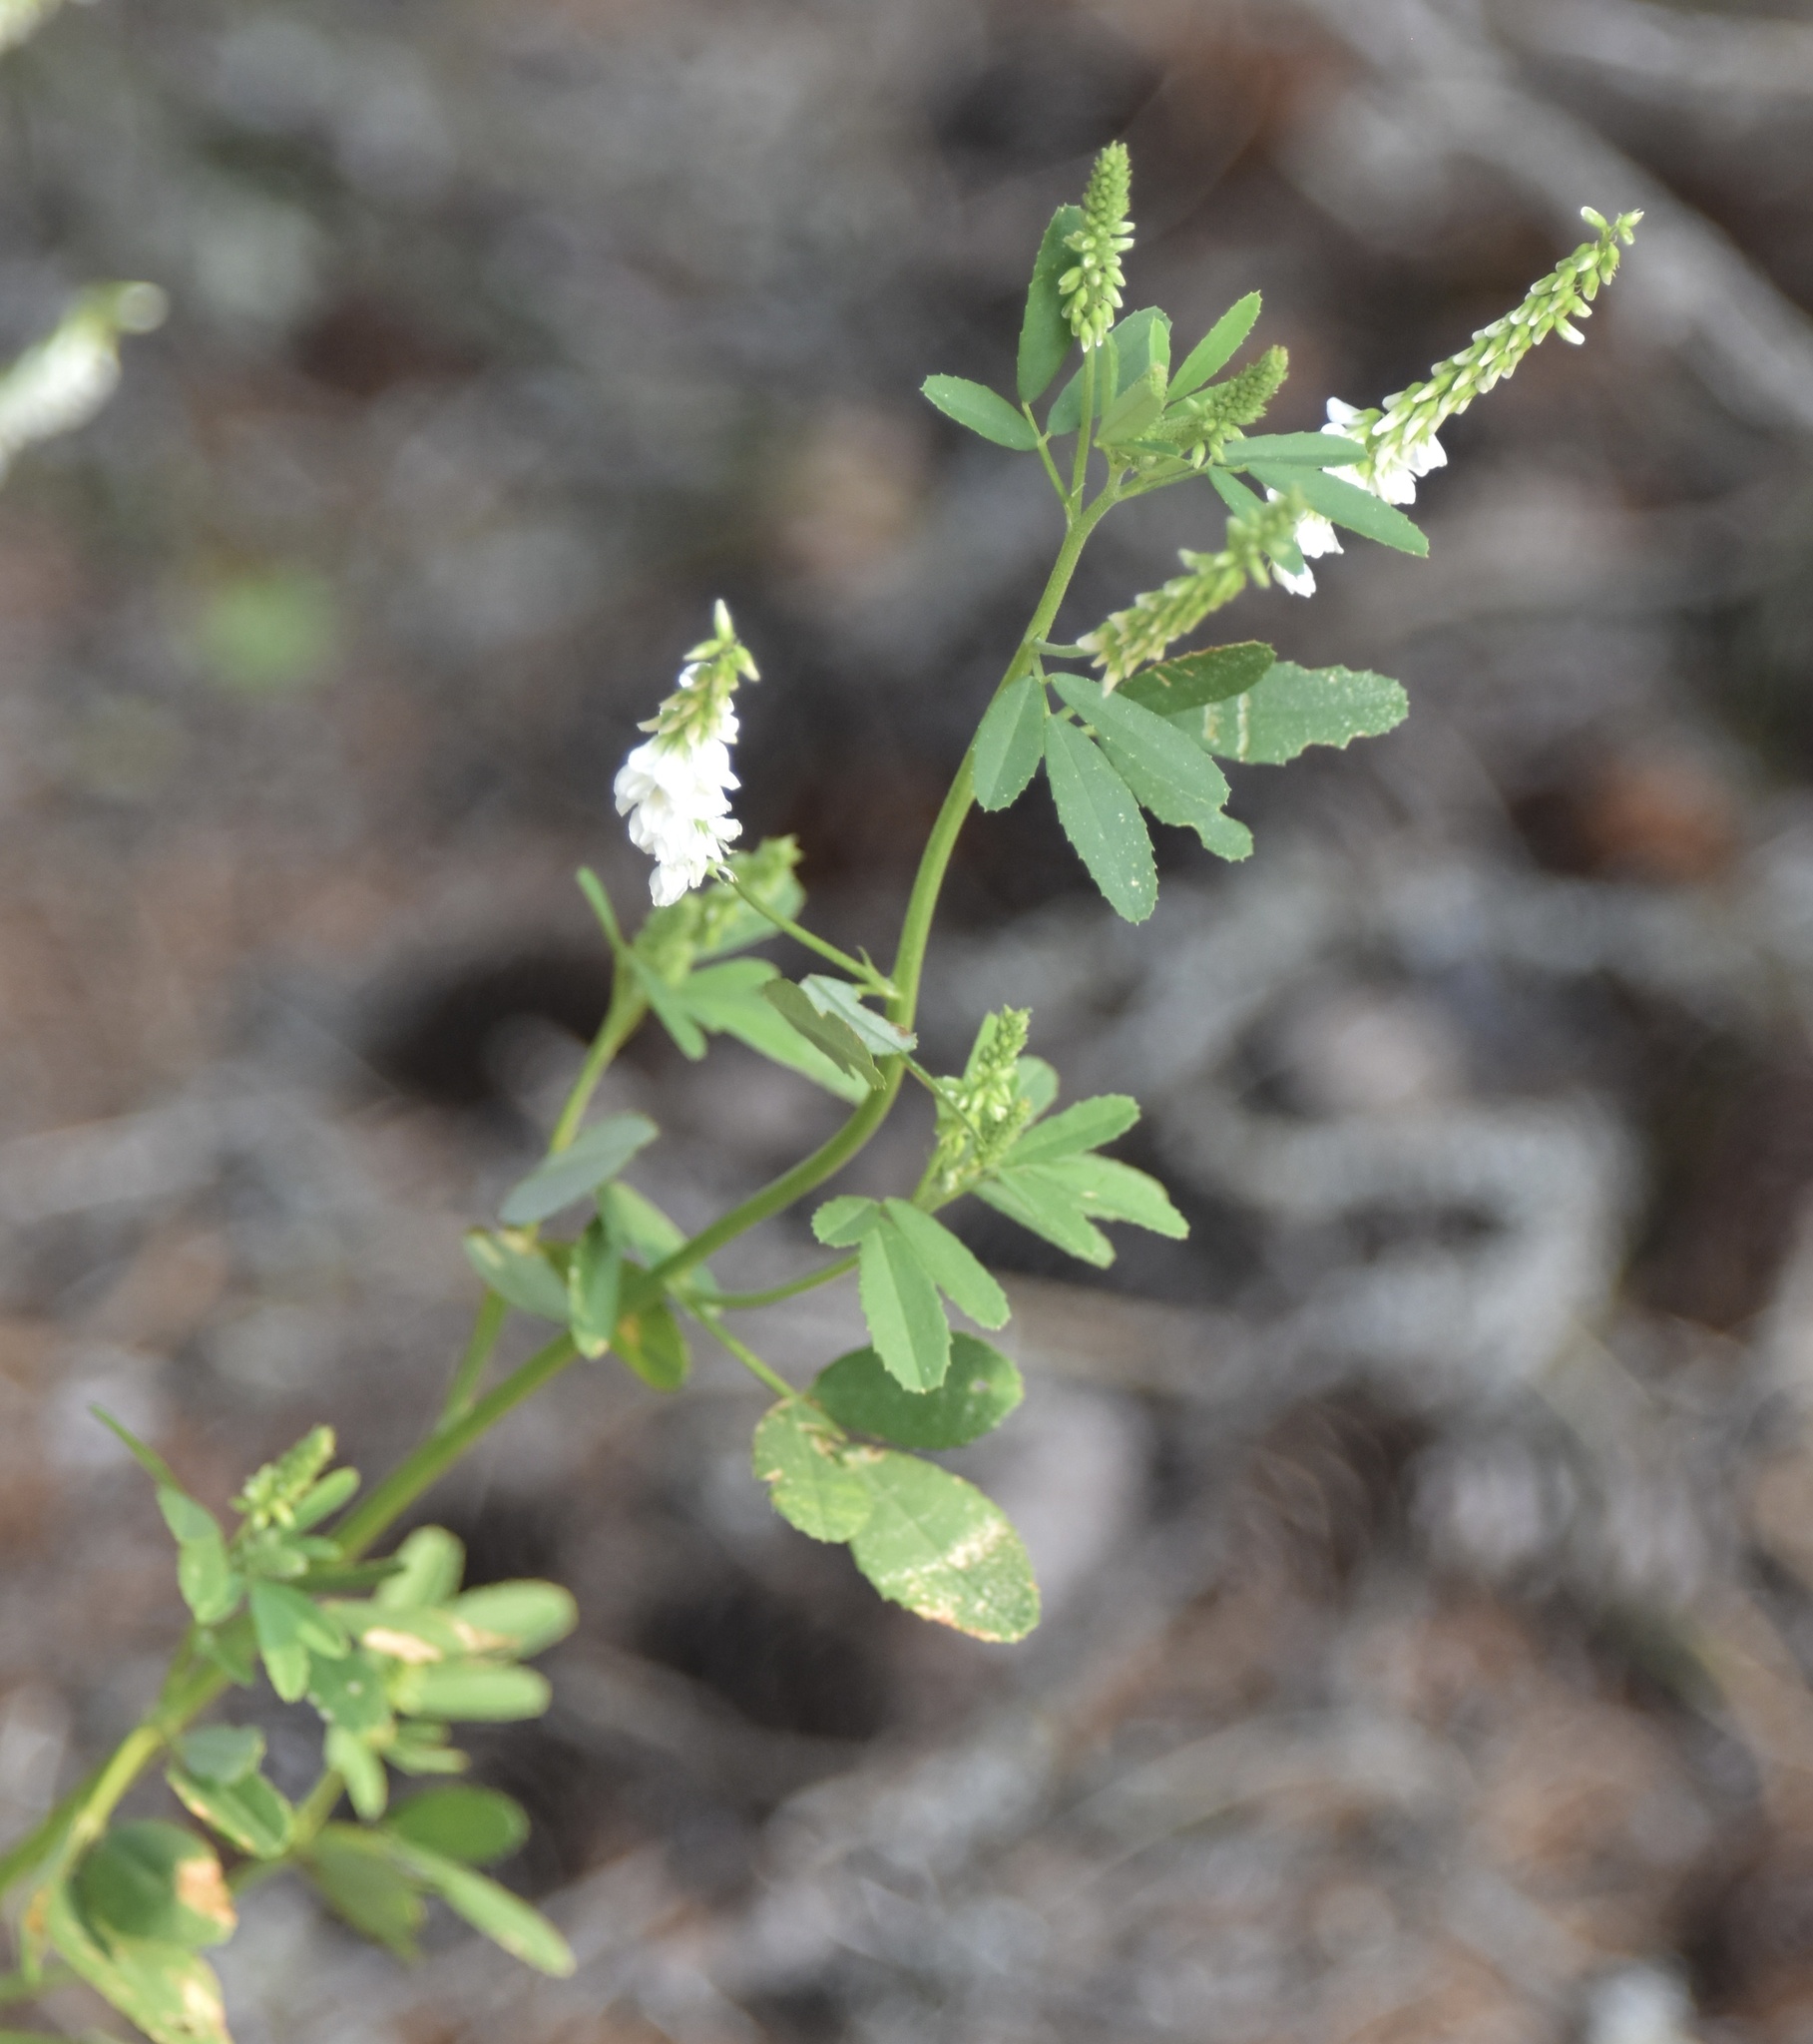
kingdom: Plantae
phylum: Tracheophyta
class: Magnoliopsida
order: Fabales
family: Fabaceae
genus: Melilotus
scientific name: Melilotus albus
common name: White melilot
